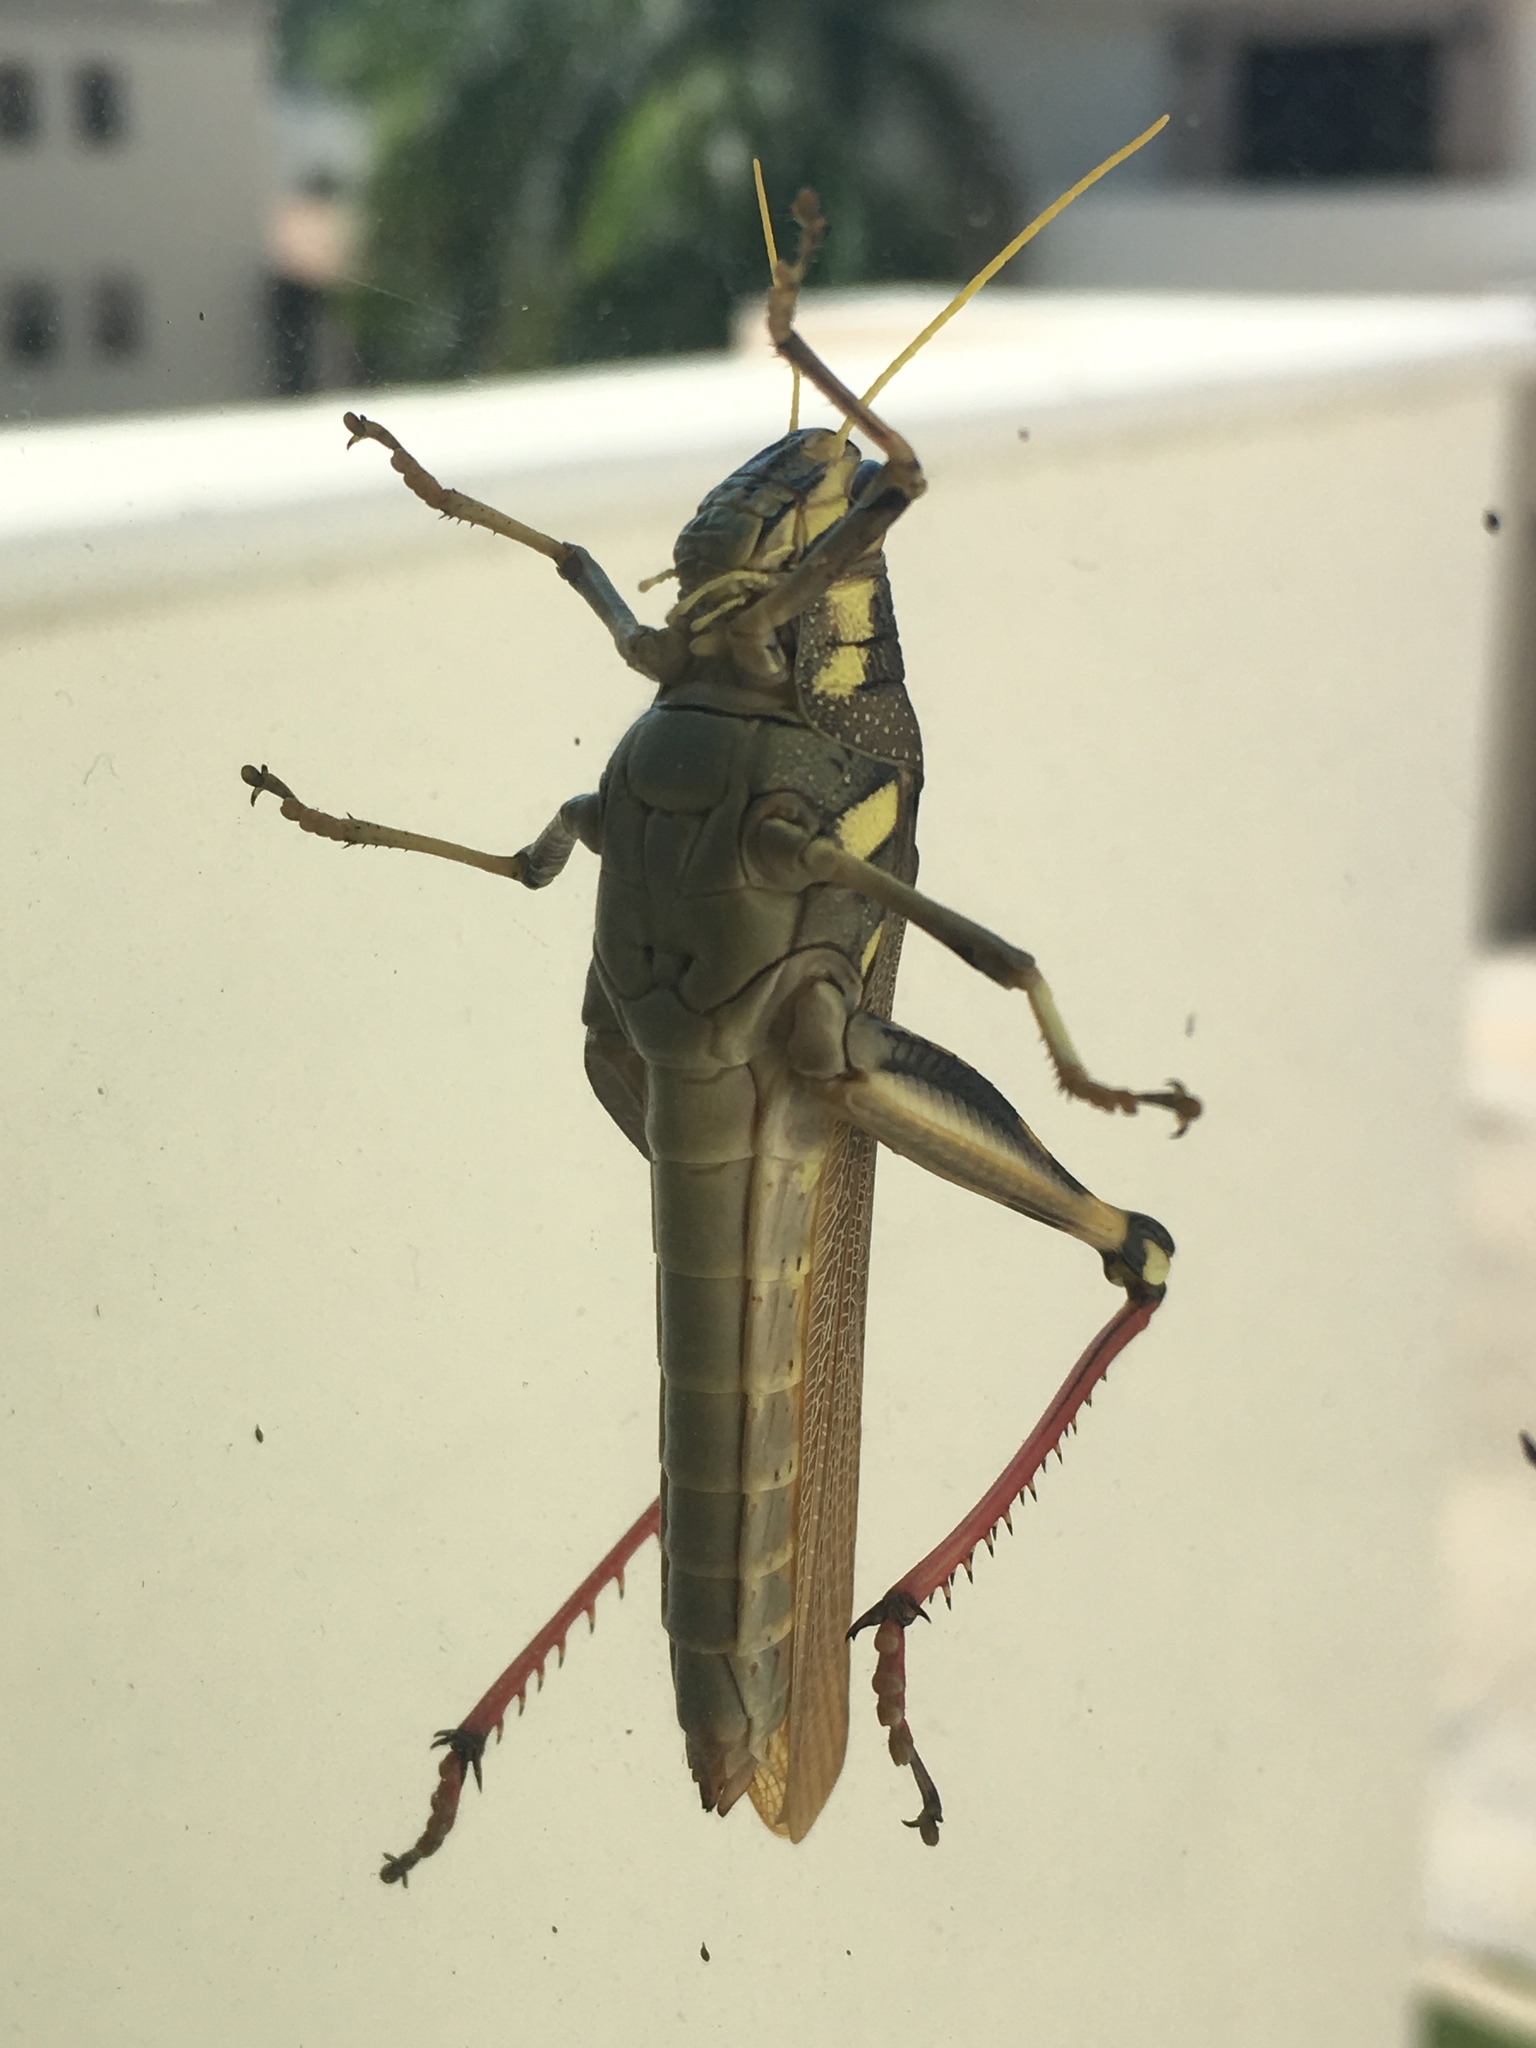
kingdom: Animalia
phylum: Arthropoda
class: Insecta
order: Orthoptera
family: Acrididae
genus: Schistocerca
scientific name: Schistocerca albolineata
